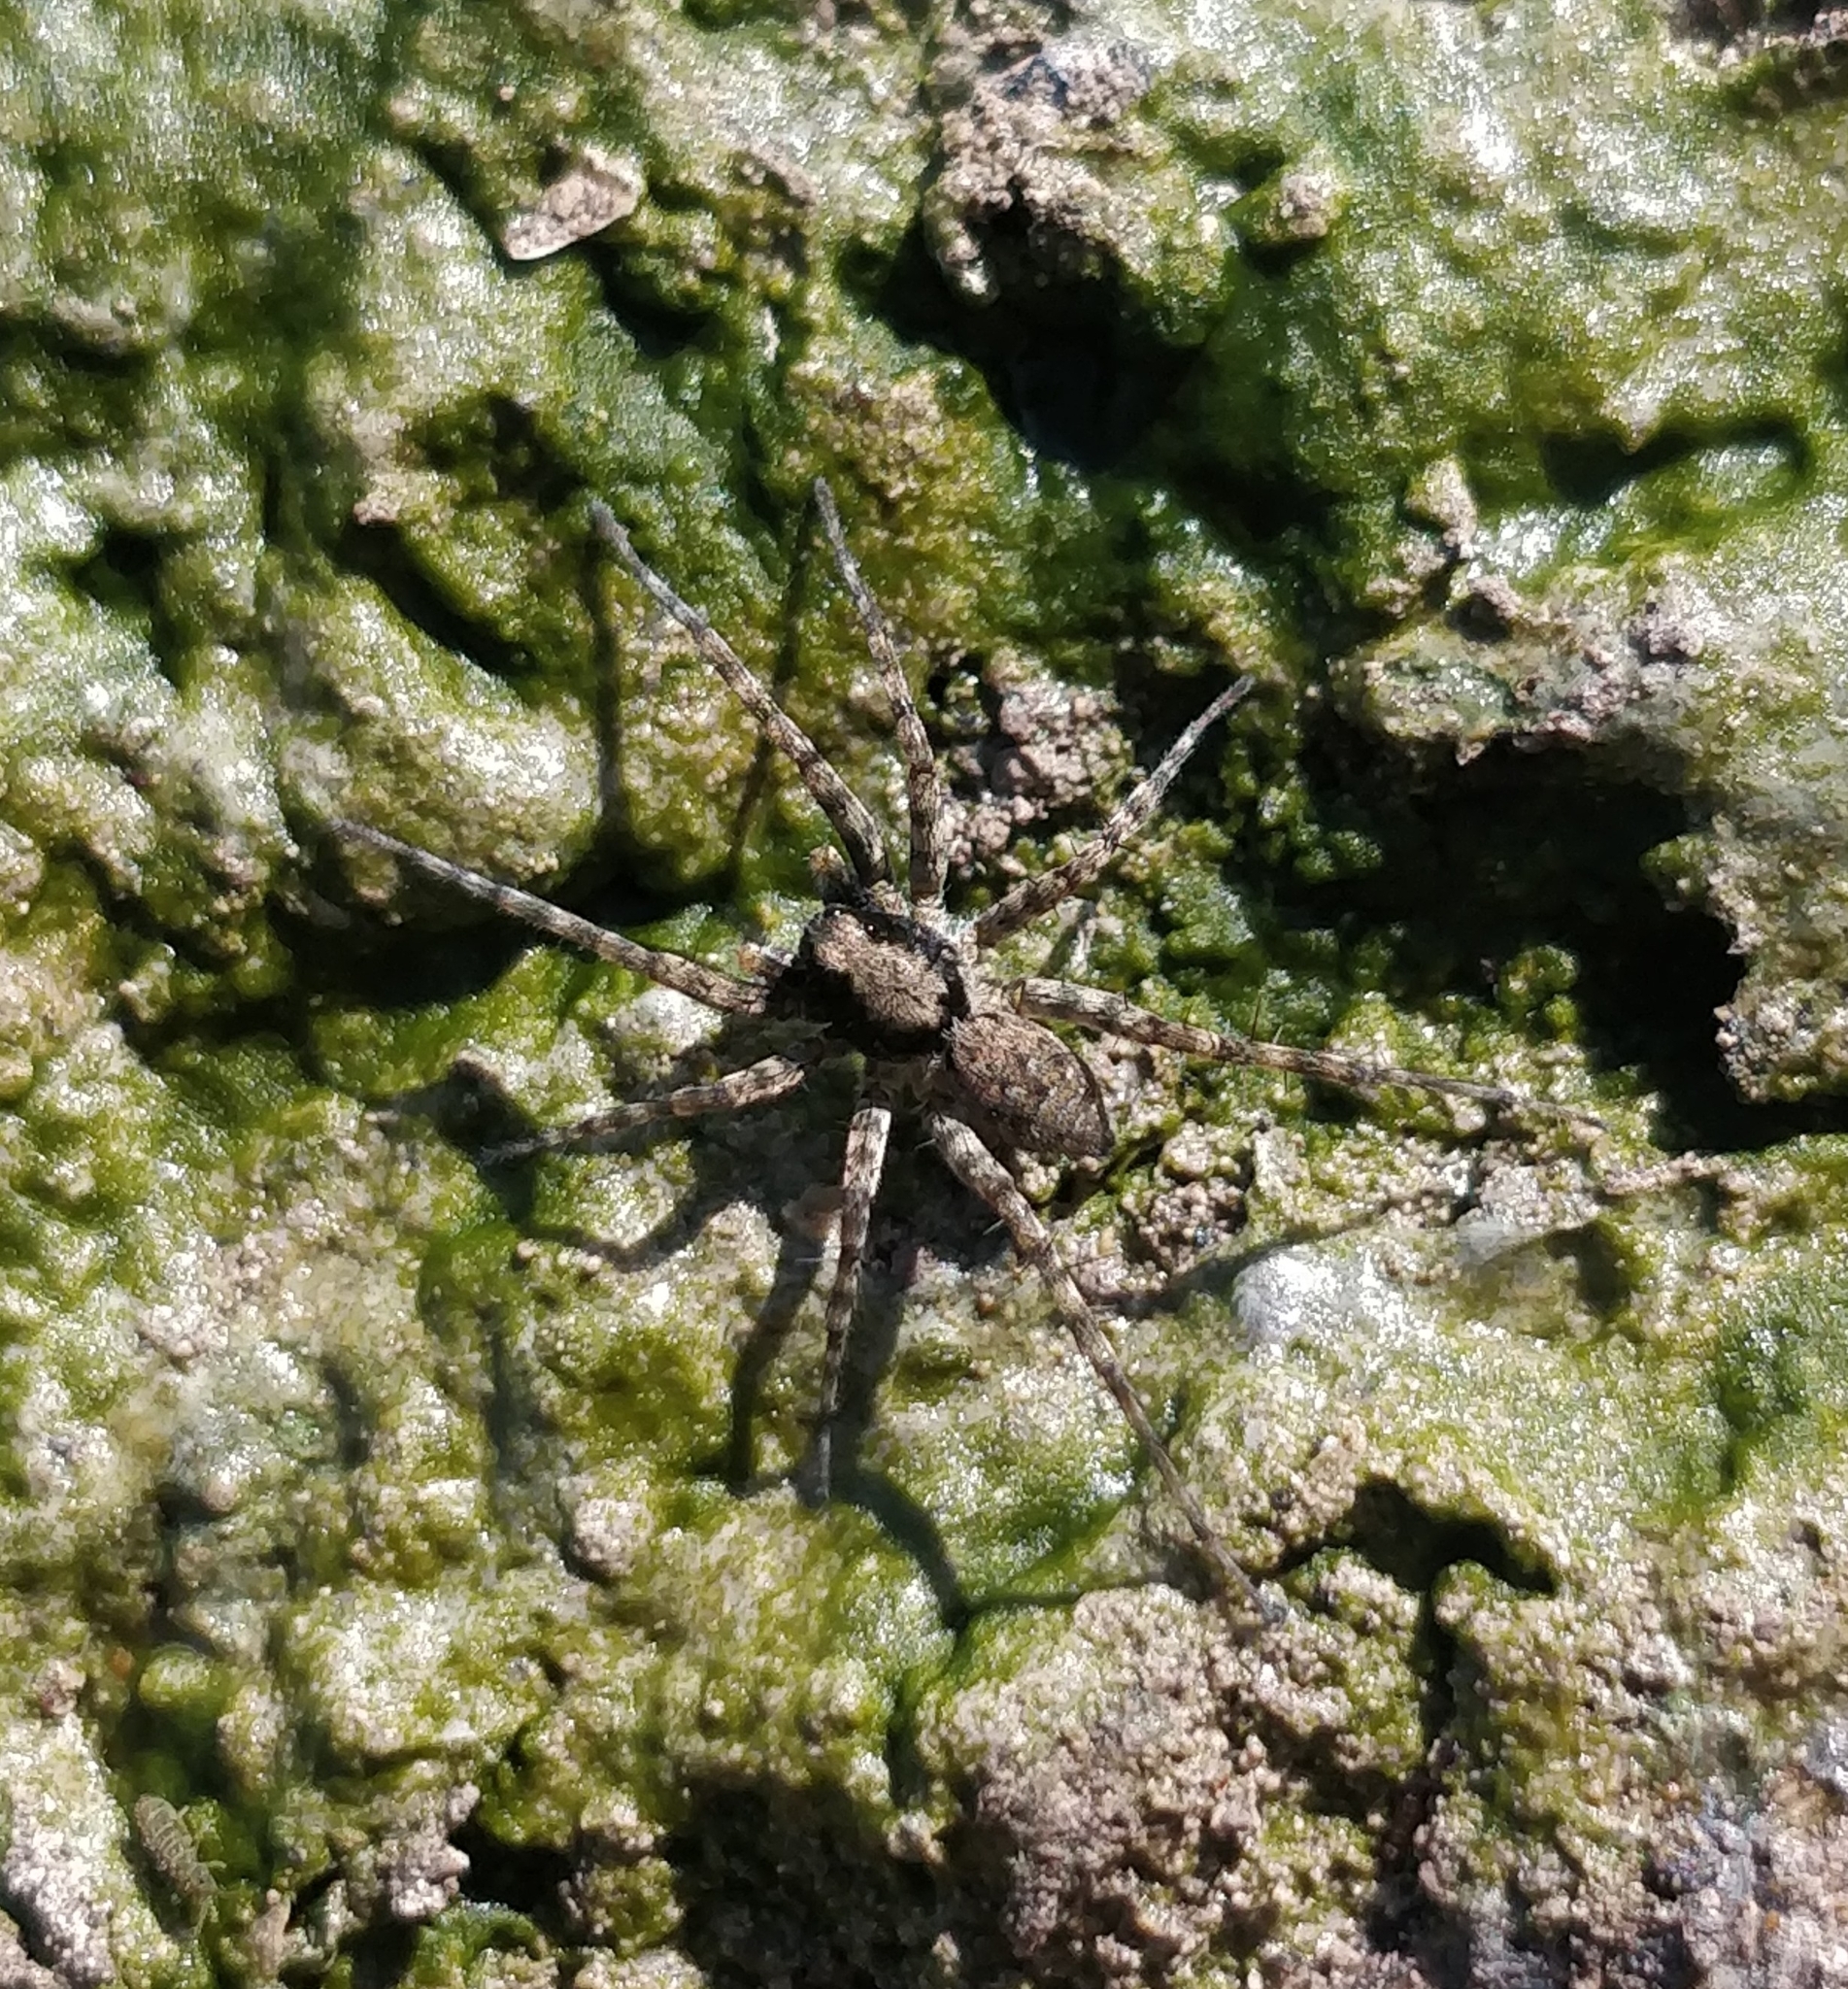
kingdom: Animalia
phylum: Arthropoda
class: Arachnida
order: Araneae
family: Lycosidae
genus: Wadicosa
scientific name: Wadicosa fidelis
